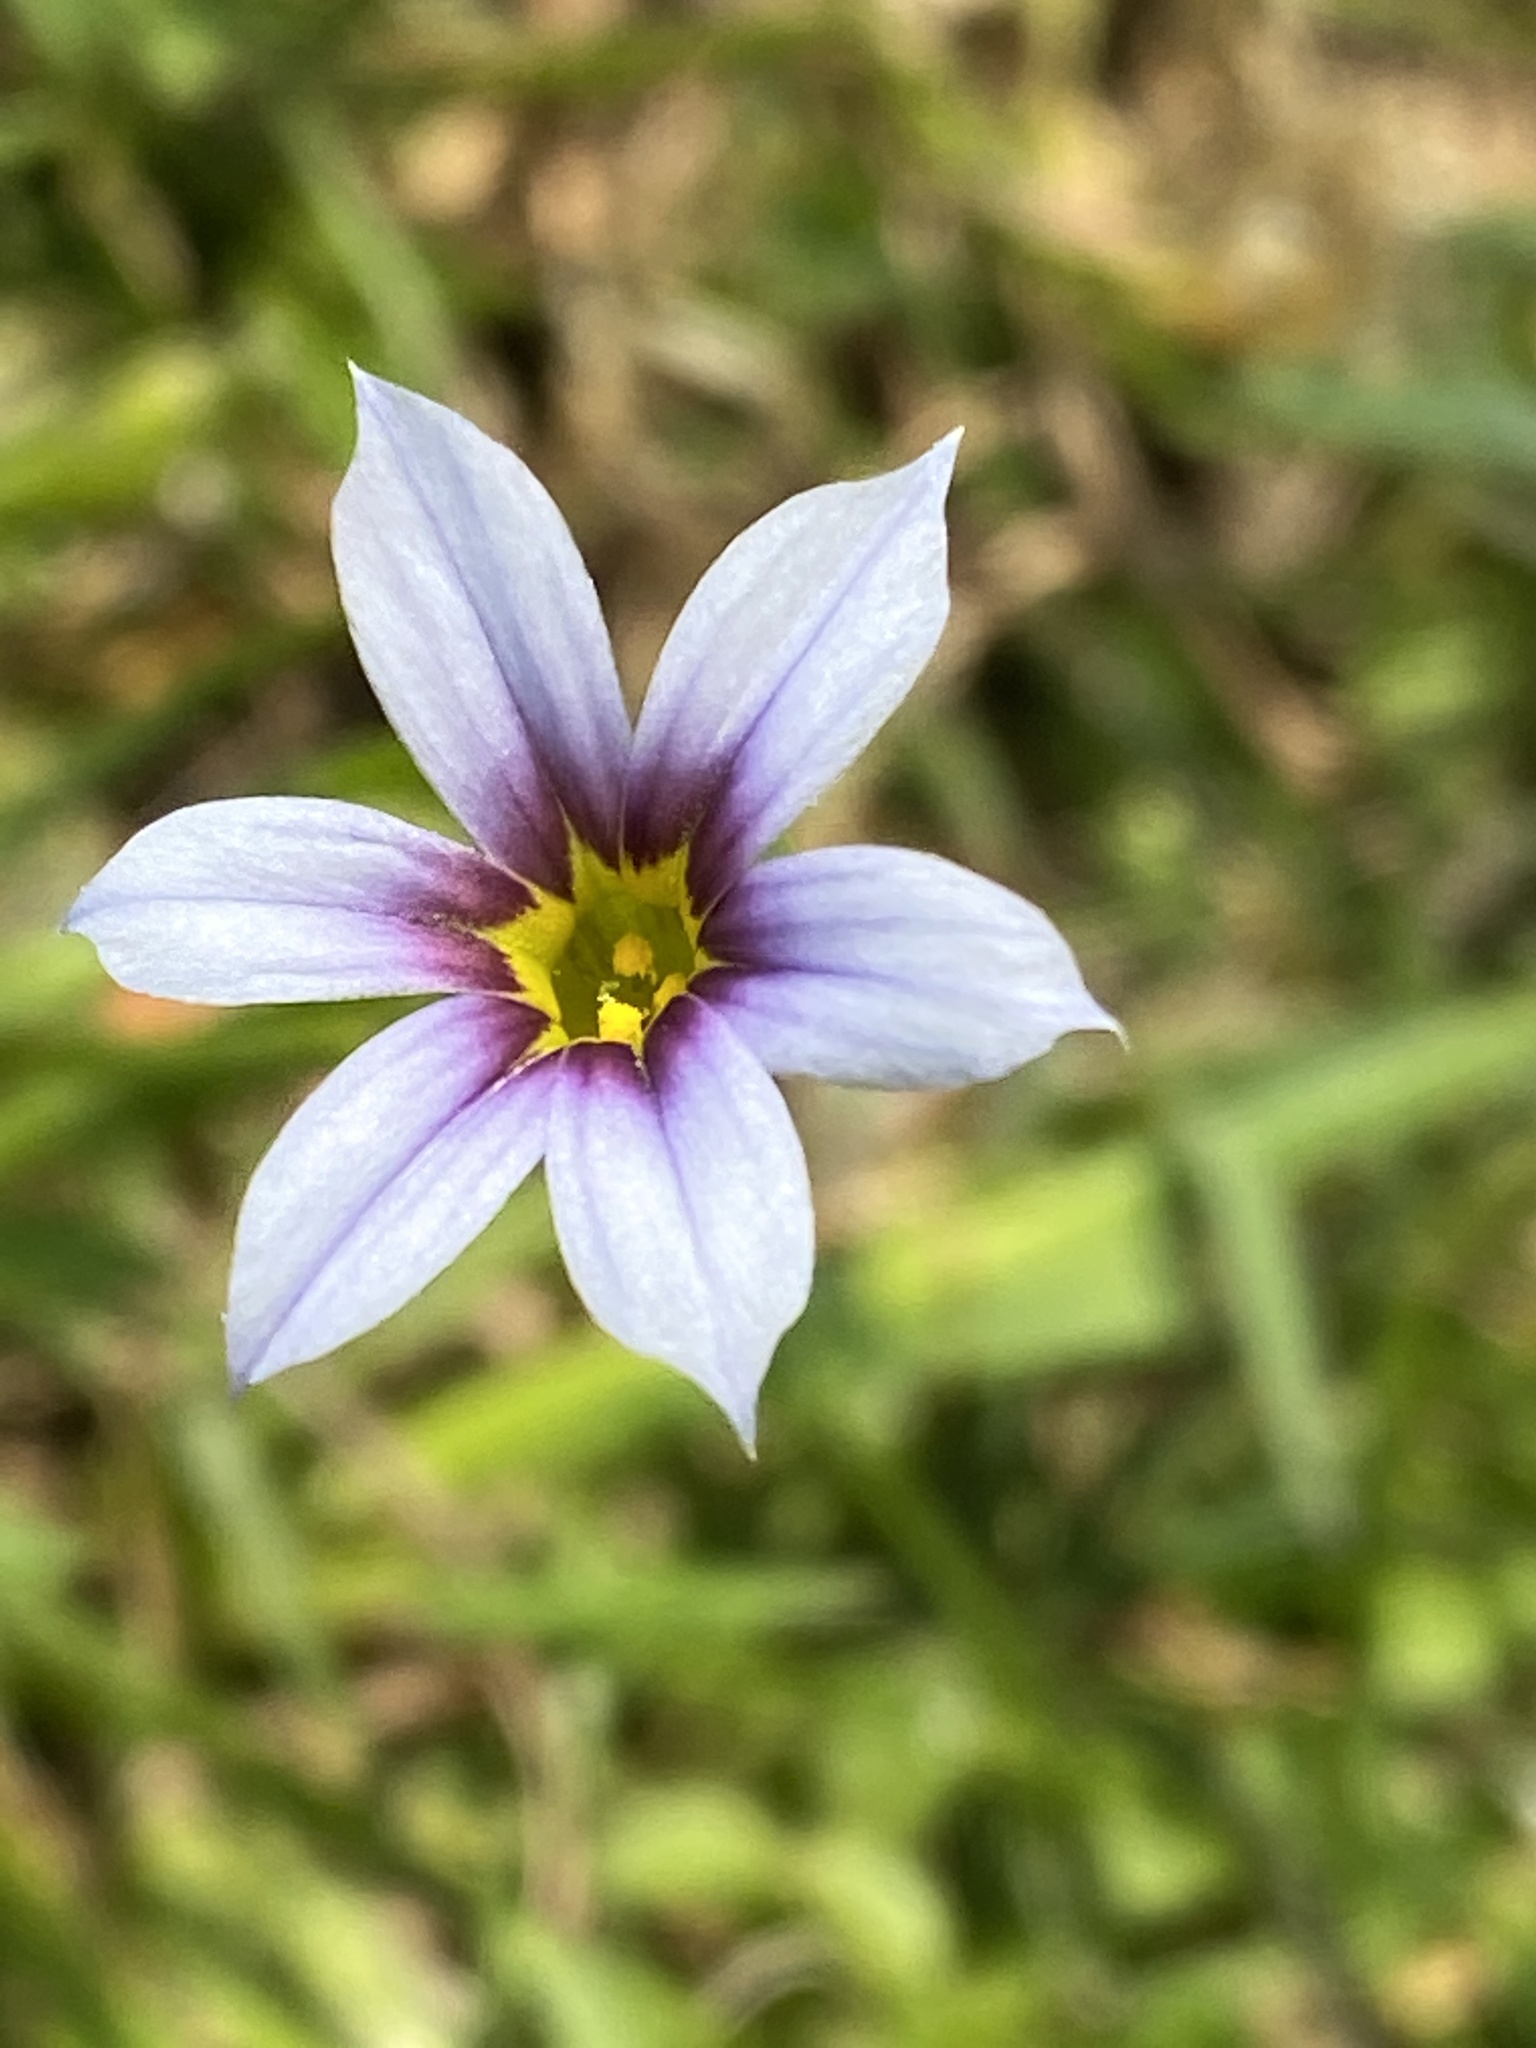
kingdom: Plantae
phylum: Tracheophyta
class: Liliopsida
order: Asparagales
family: Iridaceae
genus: Sisyrinchium
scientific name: Sisyrinchium micranthum
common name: Bermuda pigroot
